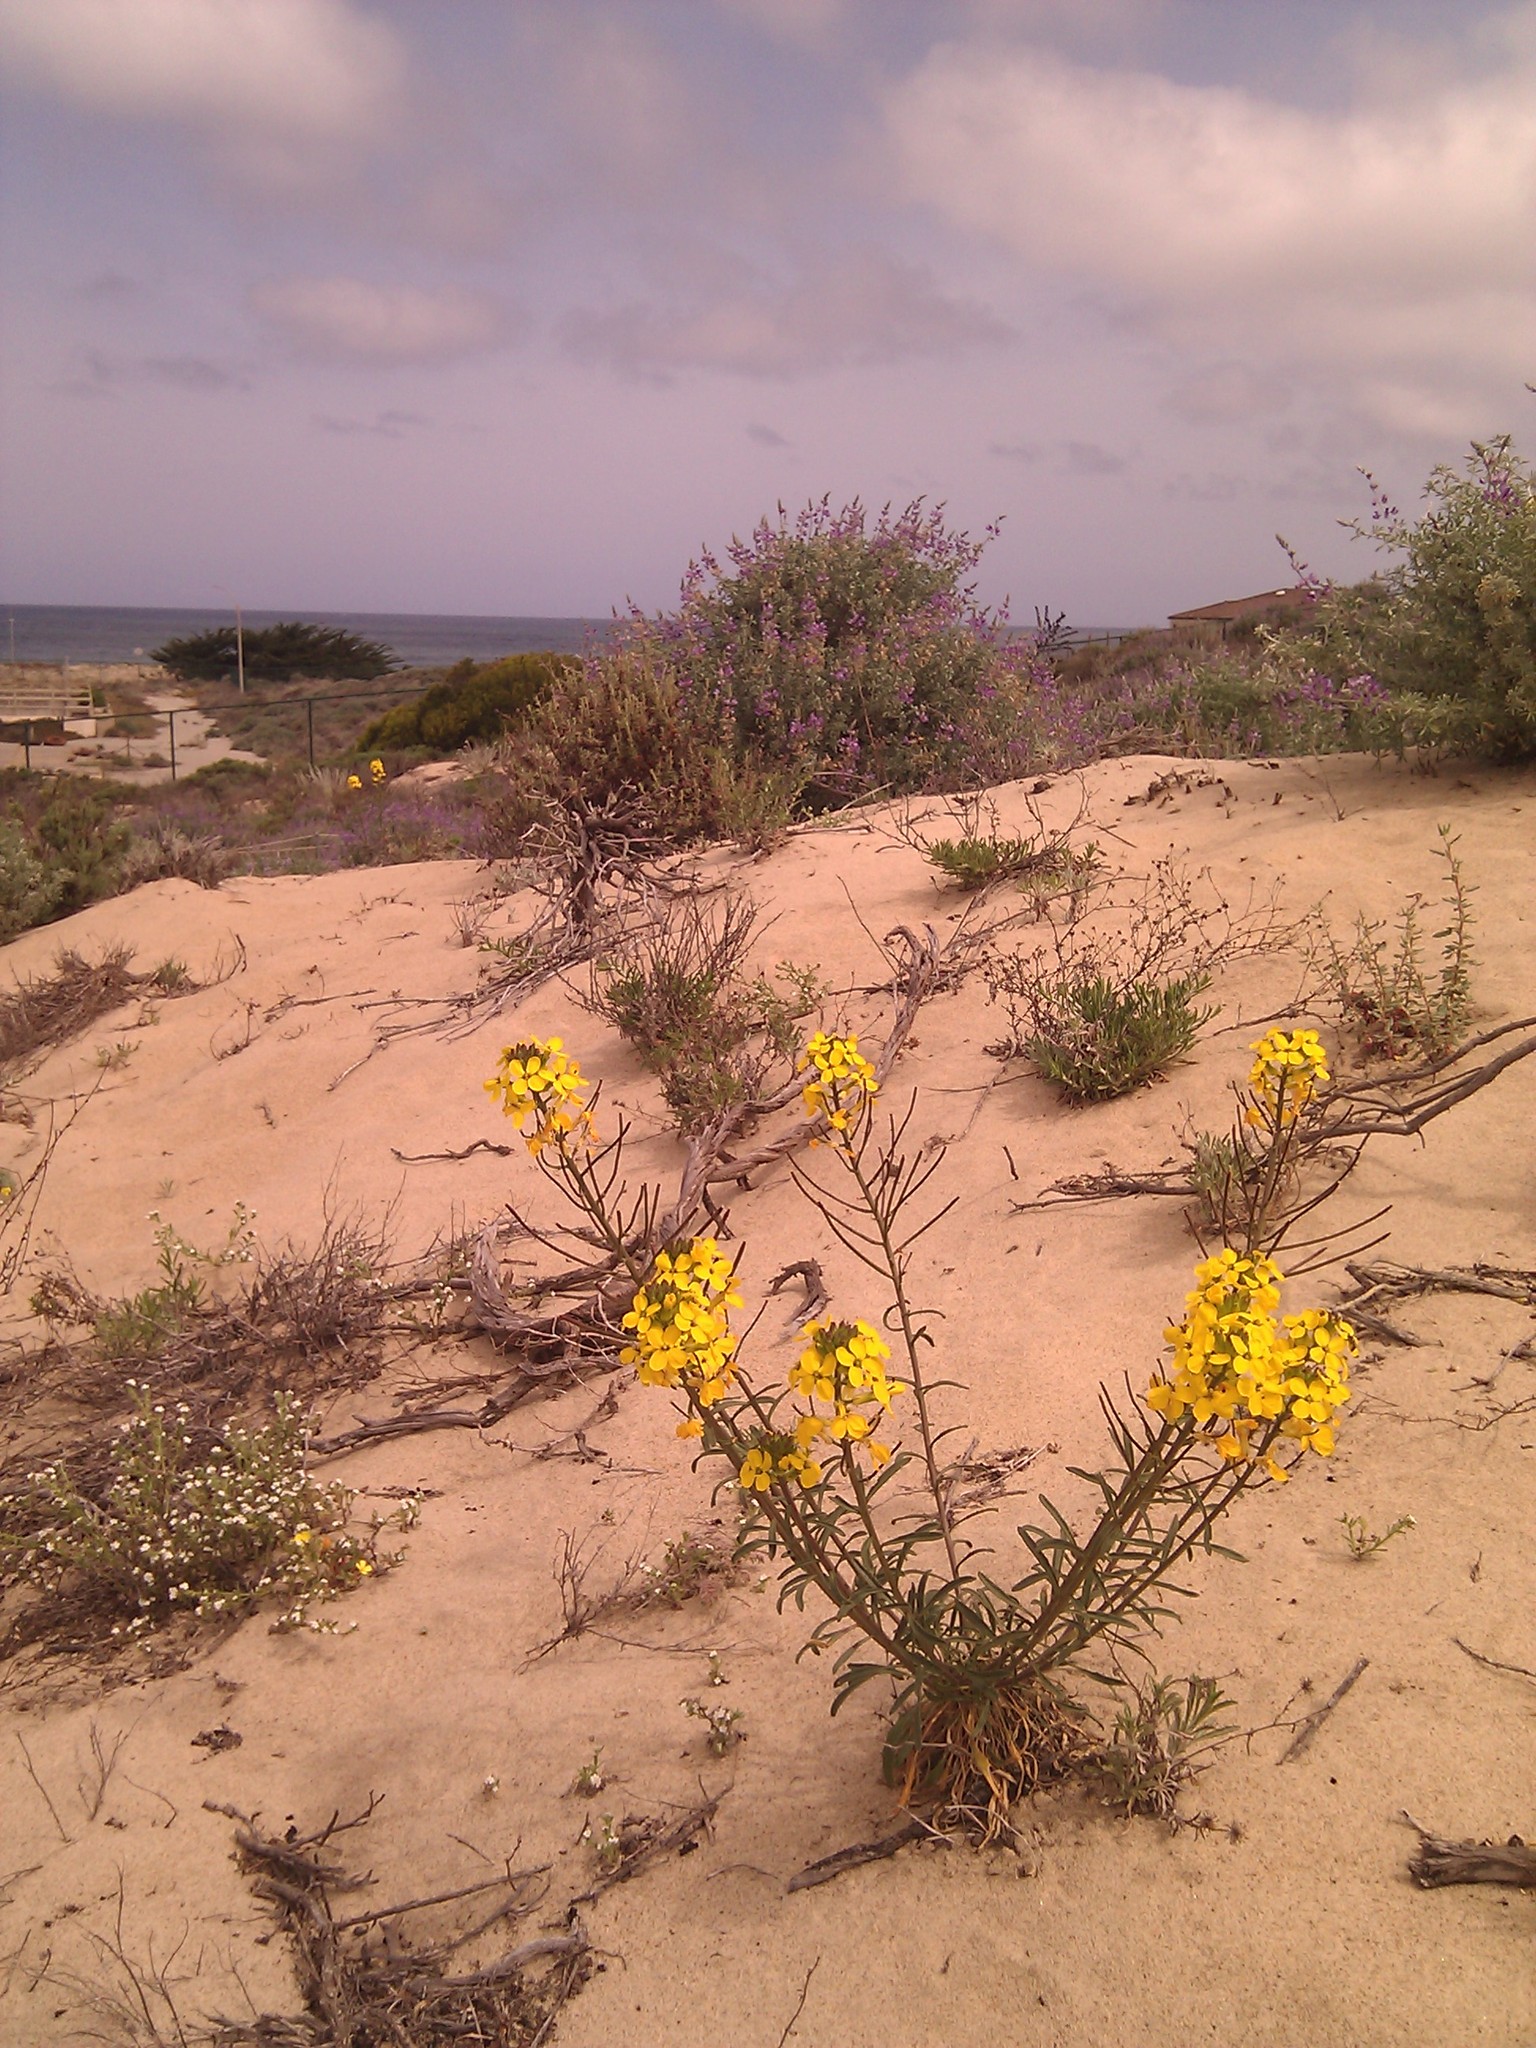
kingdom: Plantae
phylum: Tracheophyta
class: Magnoliopsida
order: Brassicales
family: Brassicaceae
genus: Erysimum
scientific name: Erysimum ammophilum
